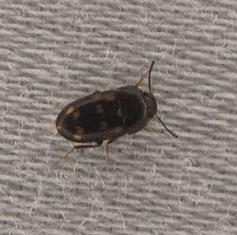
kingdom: Animalia
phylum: Arthropoda
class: Insecta
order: Coleoptera
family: Mycetophagidae
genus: Litargus
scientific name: Litargus sexpunctatus
